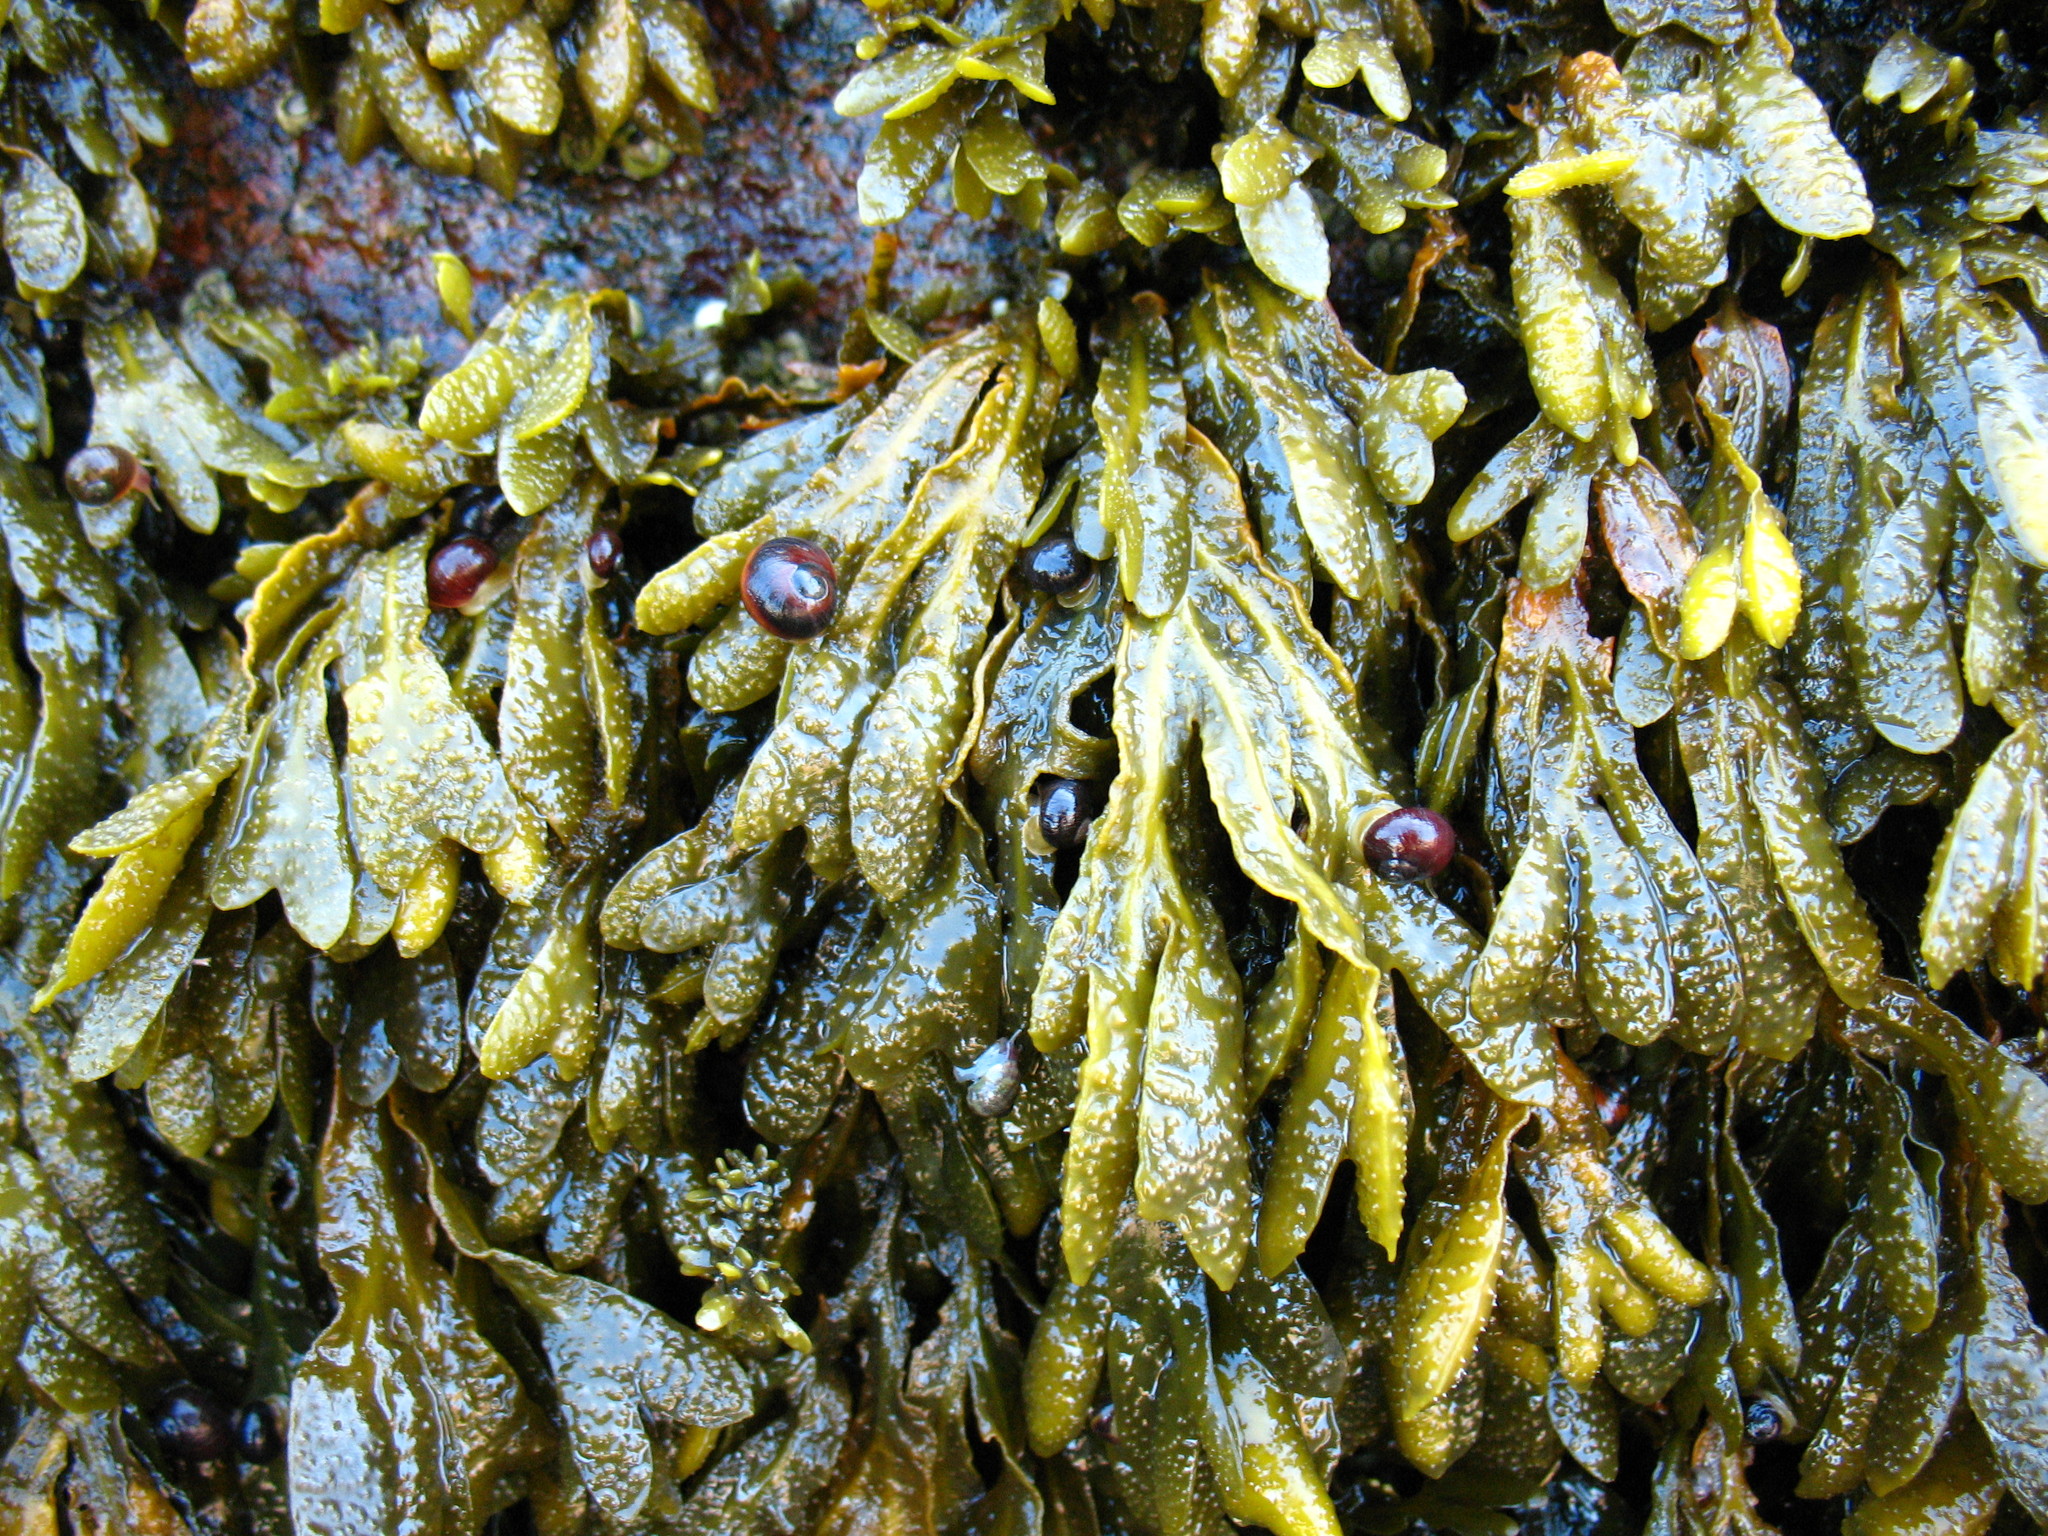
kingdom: Animalia
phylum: Mollusca
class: Gastropoda
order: Littorinimorpha
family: Littorinidae
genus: Littorina
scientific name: Littorina obtusata
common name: Flat periwinkle
